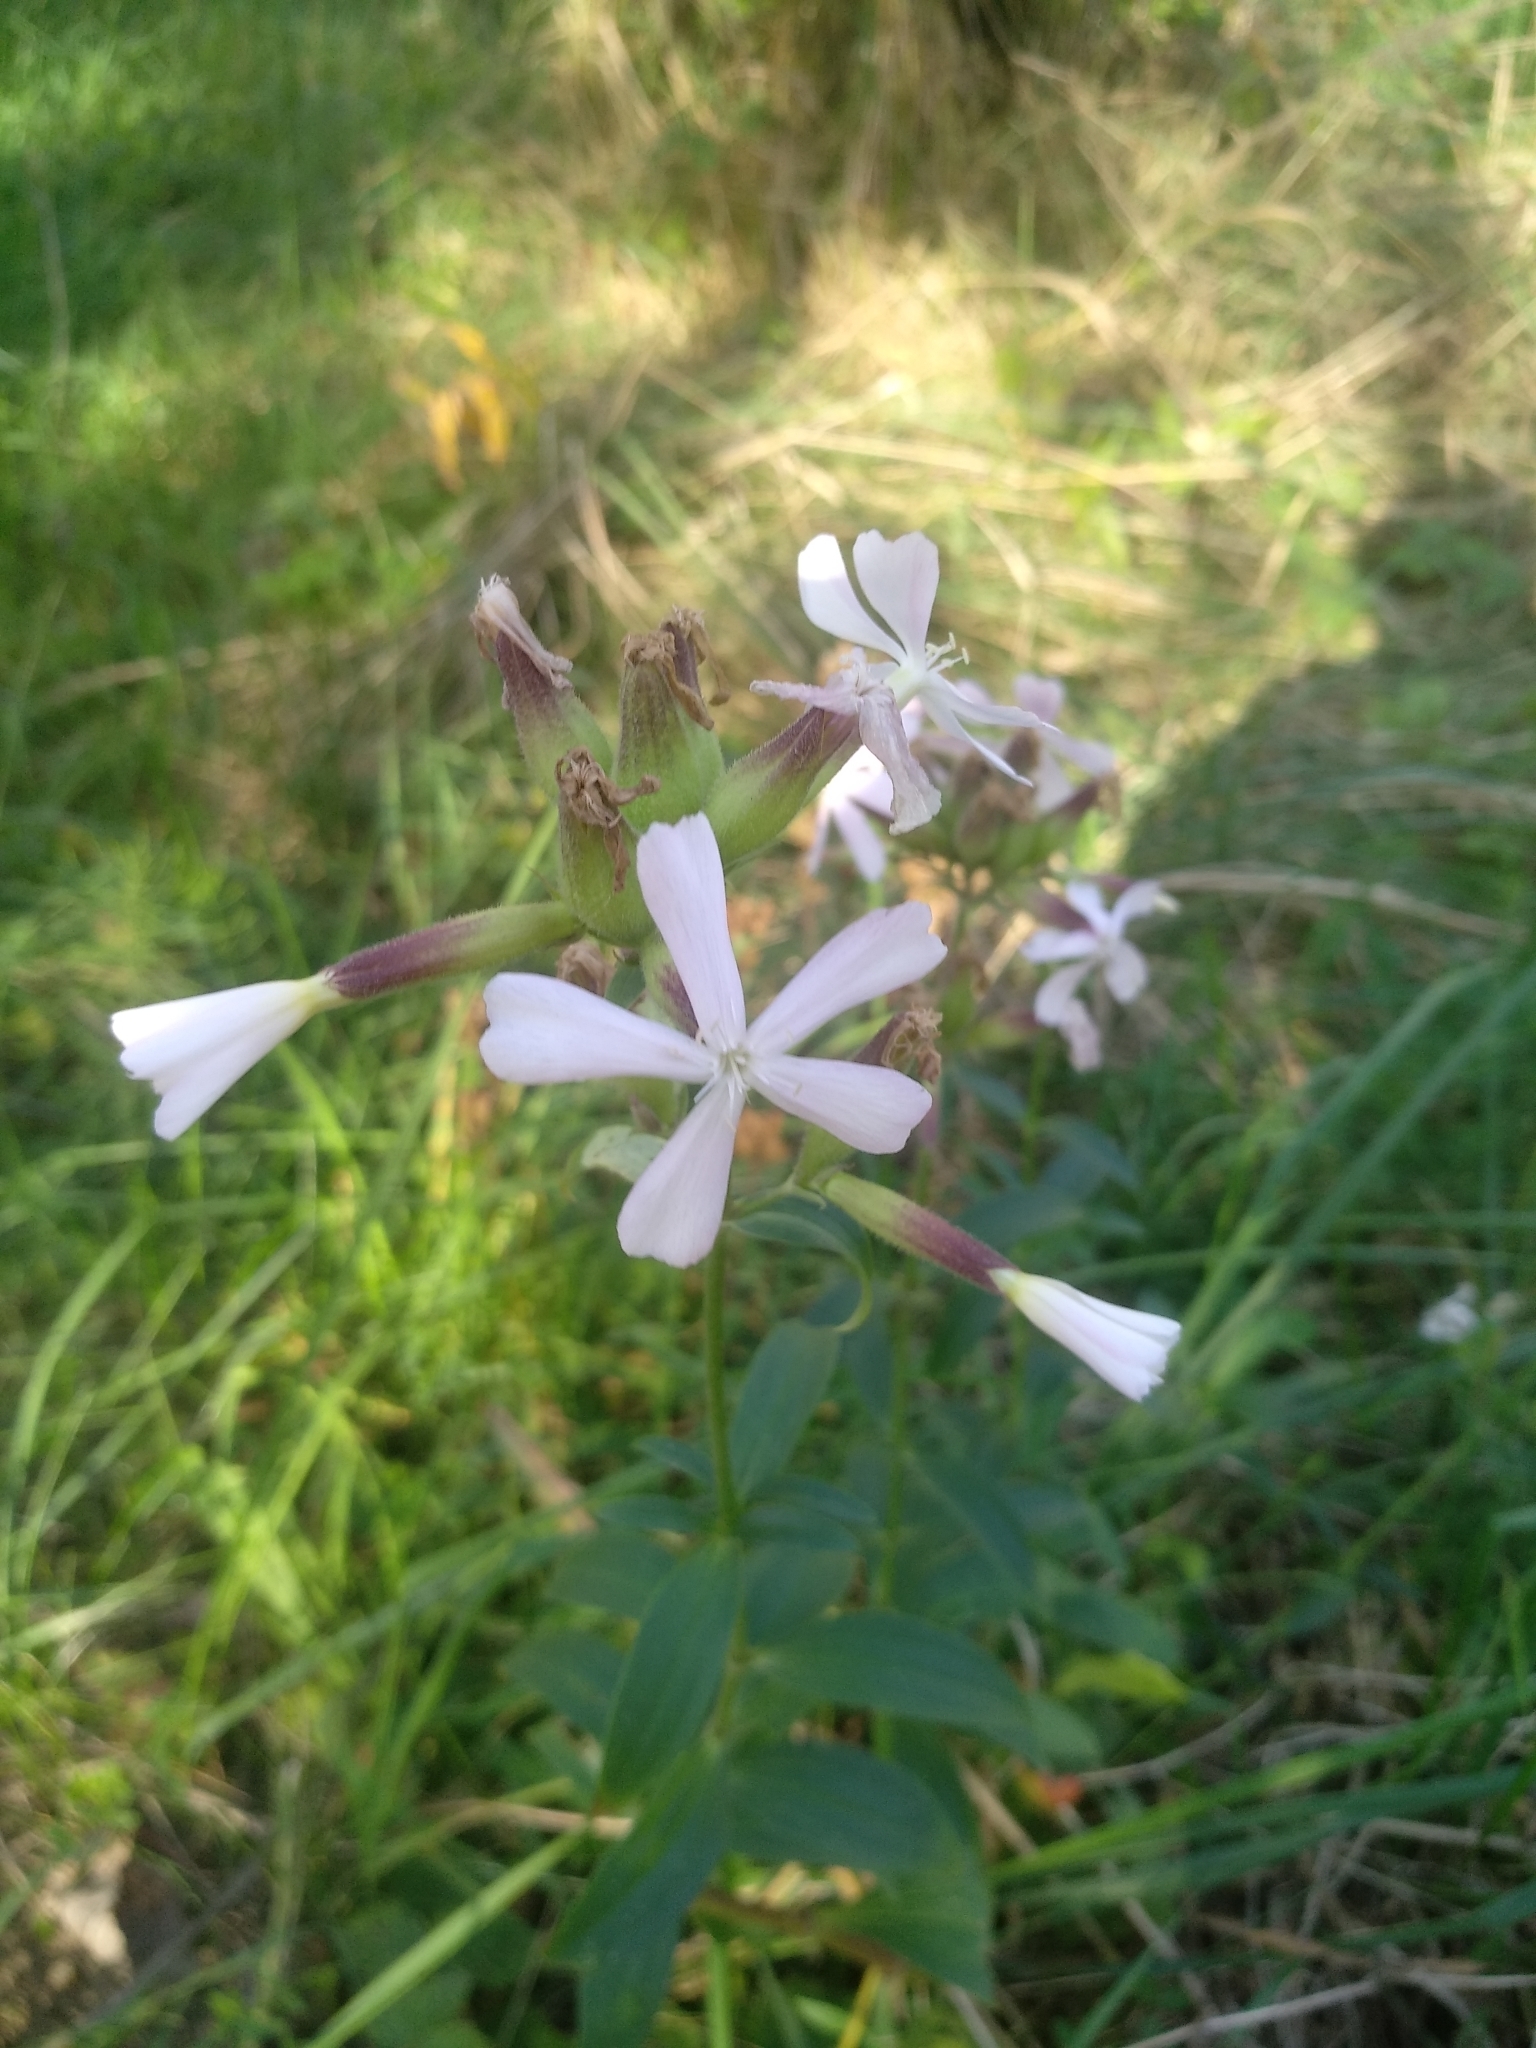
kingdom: Plantae
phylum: Tracheophyta
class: Magnoliopsida
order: Caryophyllales
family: Caryophyllaceae
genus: Saponaria
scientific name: Saponaria officinalis
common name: Soapwort
